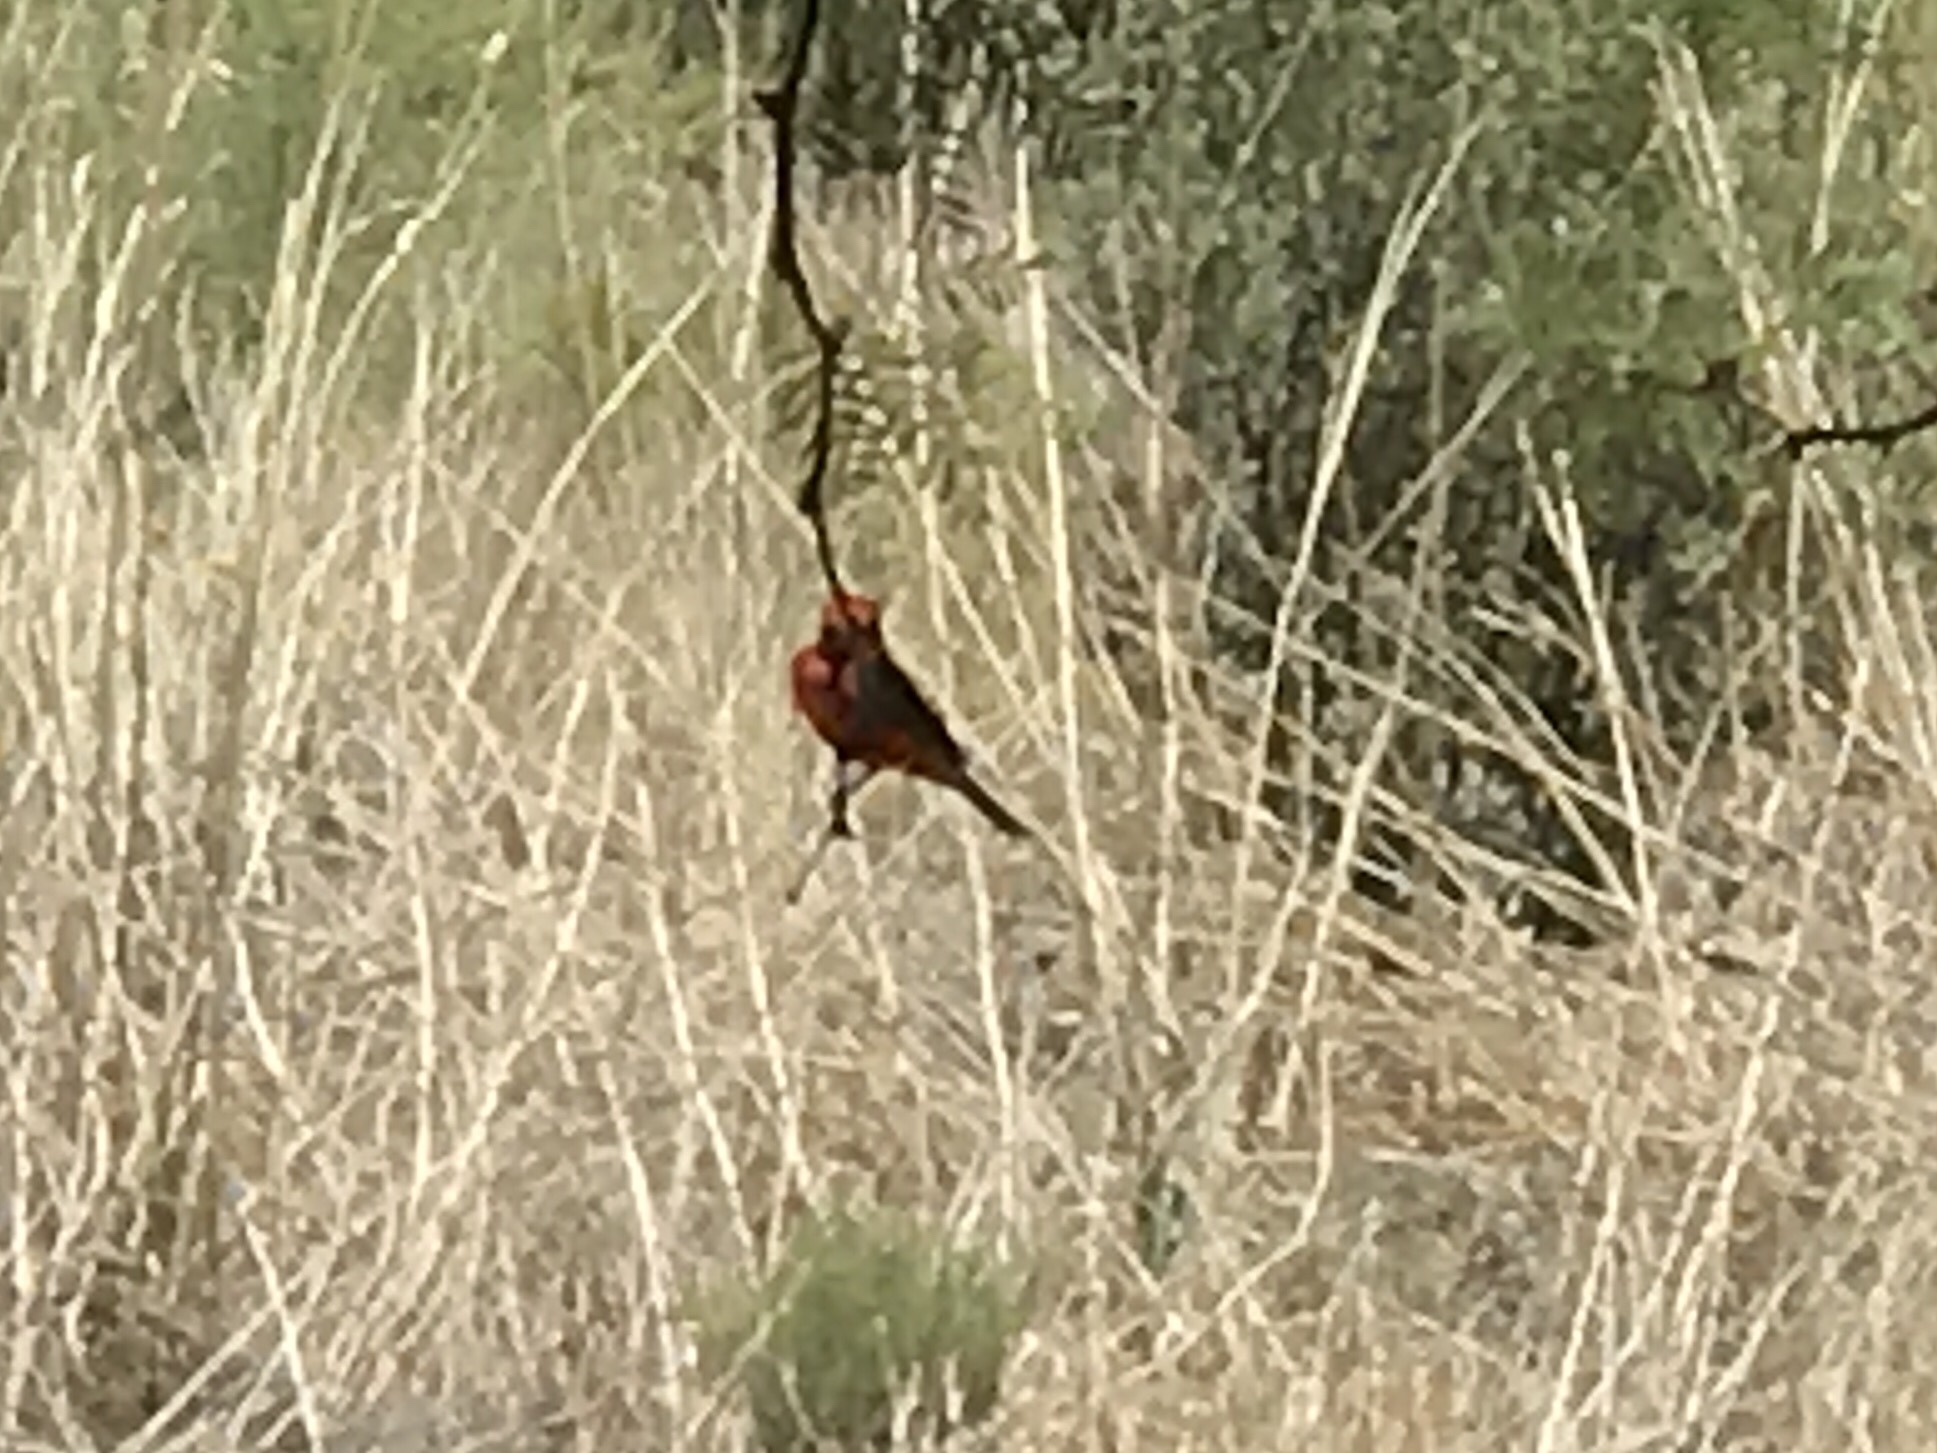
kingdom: Animalia
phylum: Chordata
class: Aves
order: Passeriformes
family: Tyrannidae
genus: Pyrocephalus
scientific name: Pyrocephalus rubinus
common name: Vermilion flycatcher
